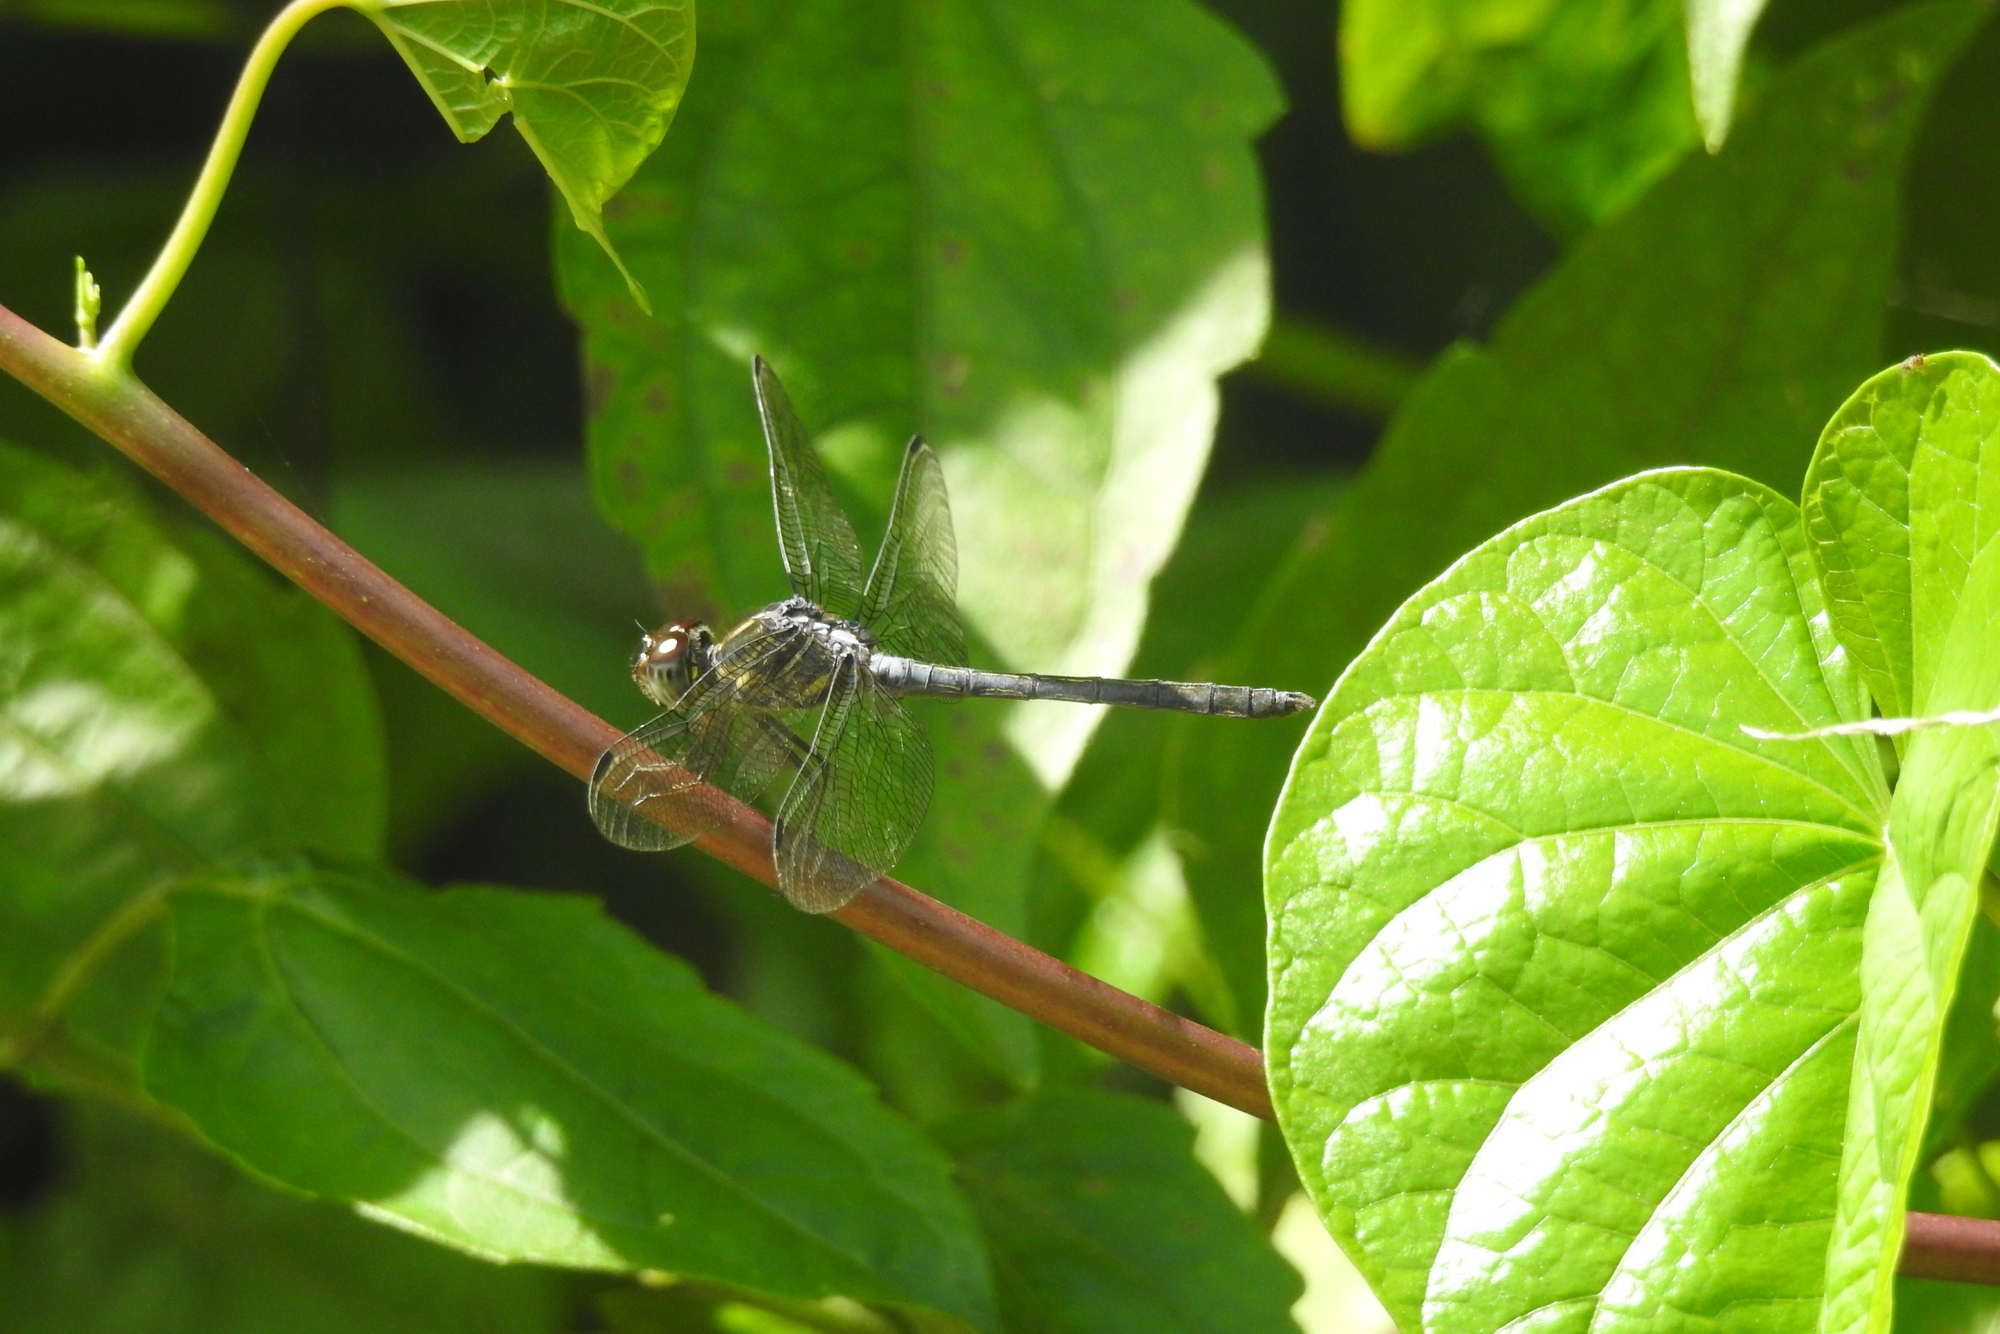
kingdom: Animalia
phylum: Arthropoda
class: Insecta
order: Odonata
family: Libellulidae
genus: Cratilla
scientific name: Cratilla lineata
